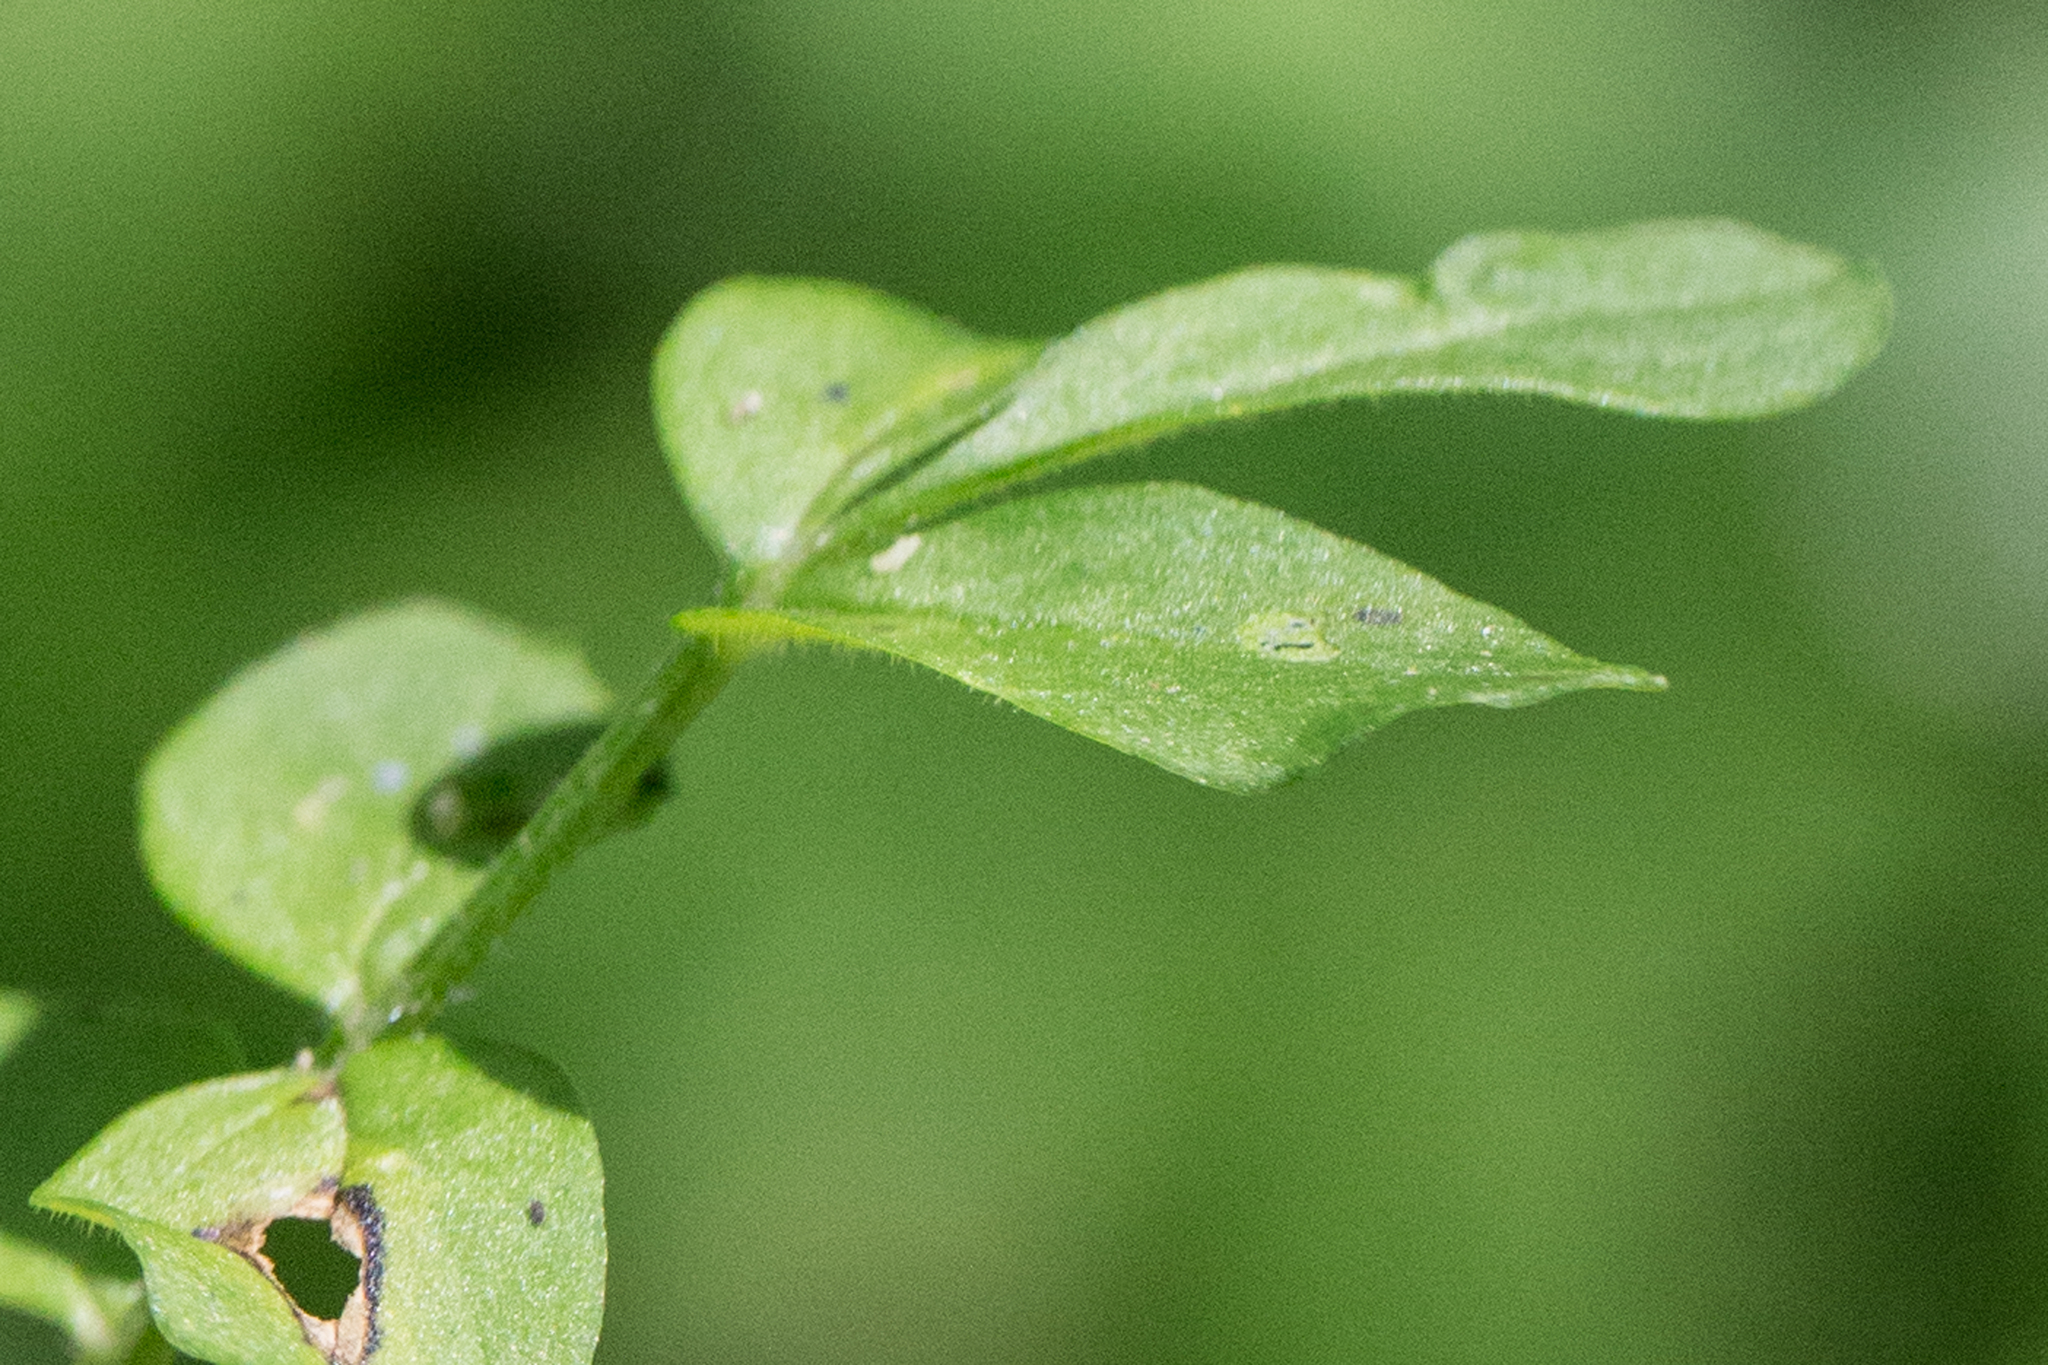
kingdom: Plantae
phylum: Tracheophyta
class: Magnoliopsida
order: Ericales
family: Polemoniaceae
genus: Polemonium
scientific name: Polemonium reptans
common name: Creeping jacob's-ladder
